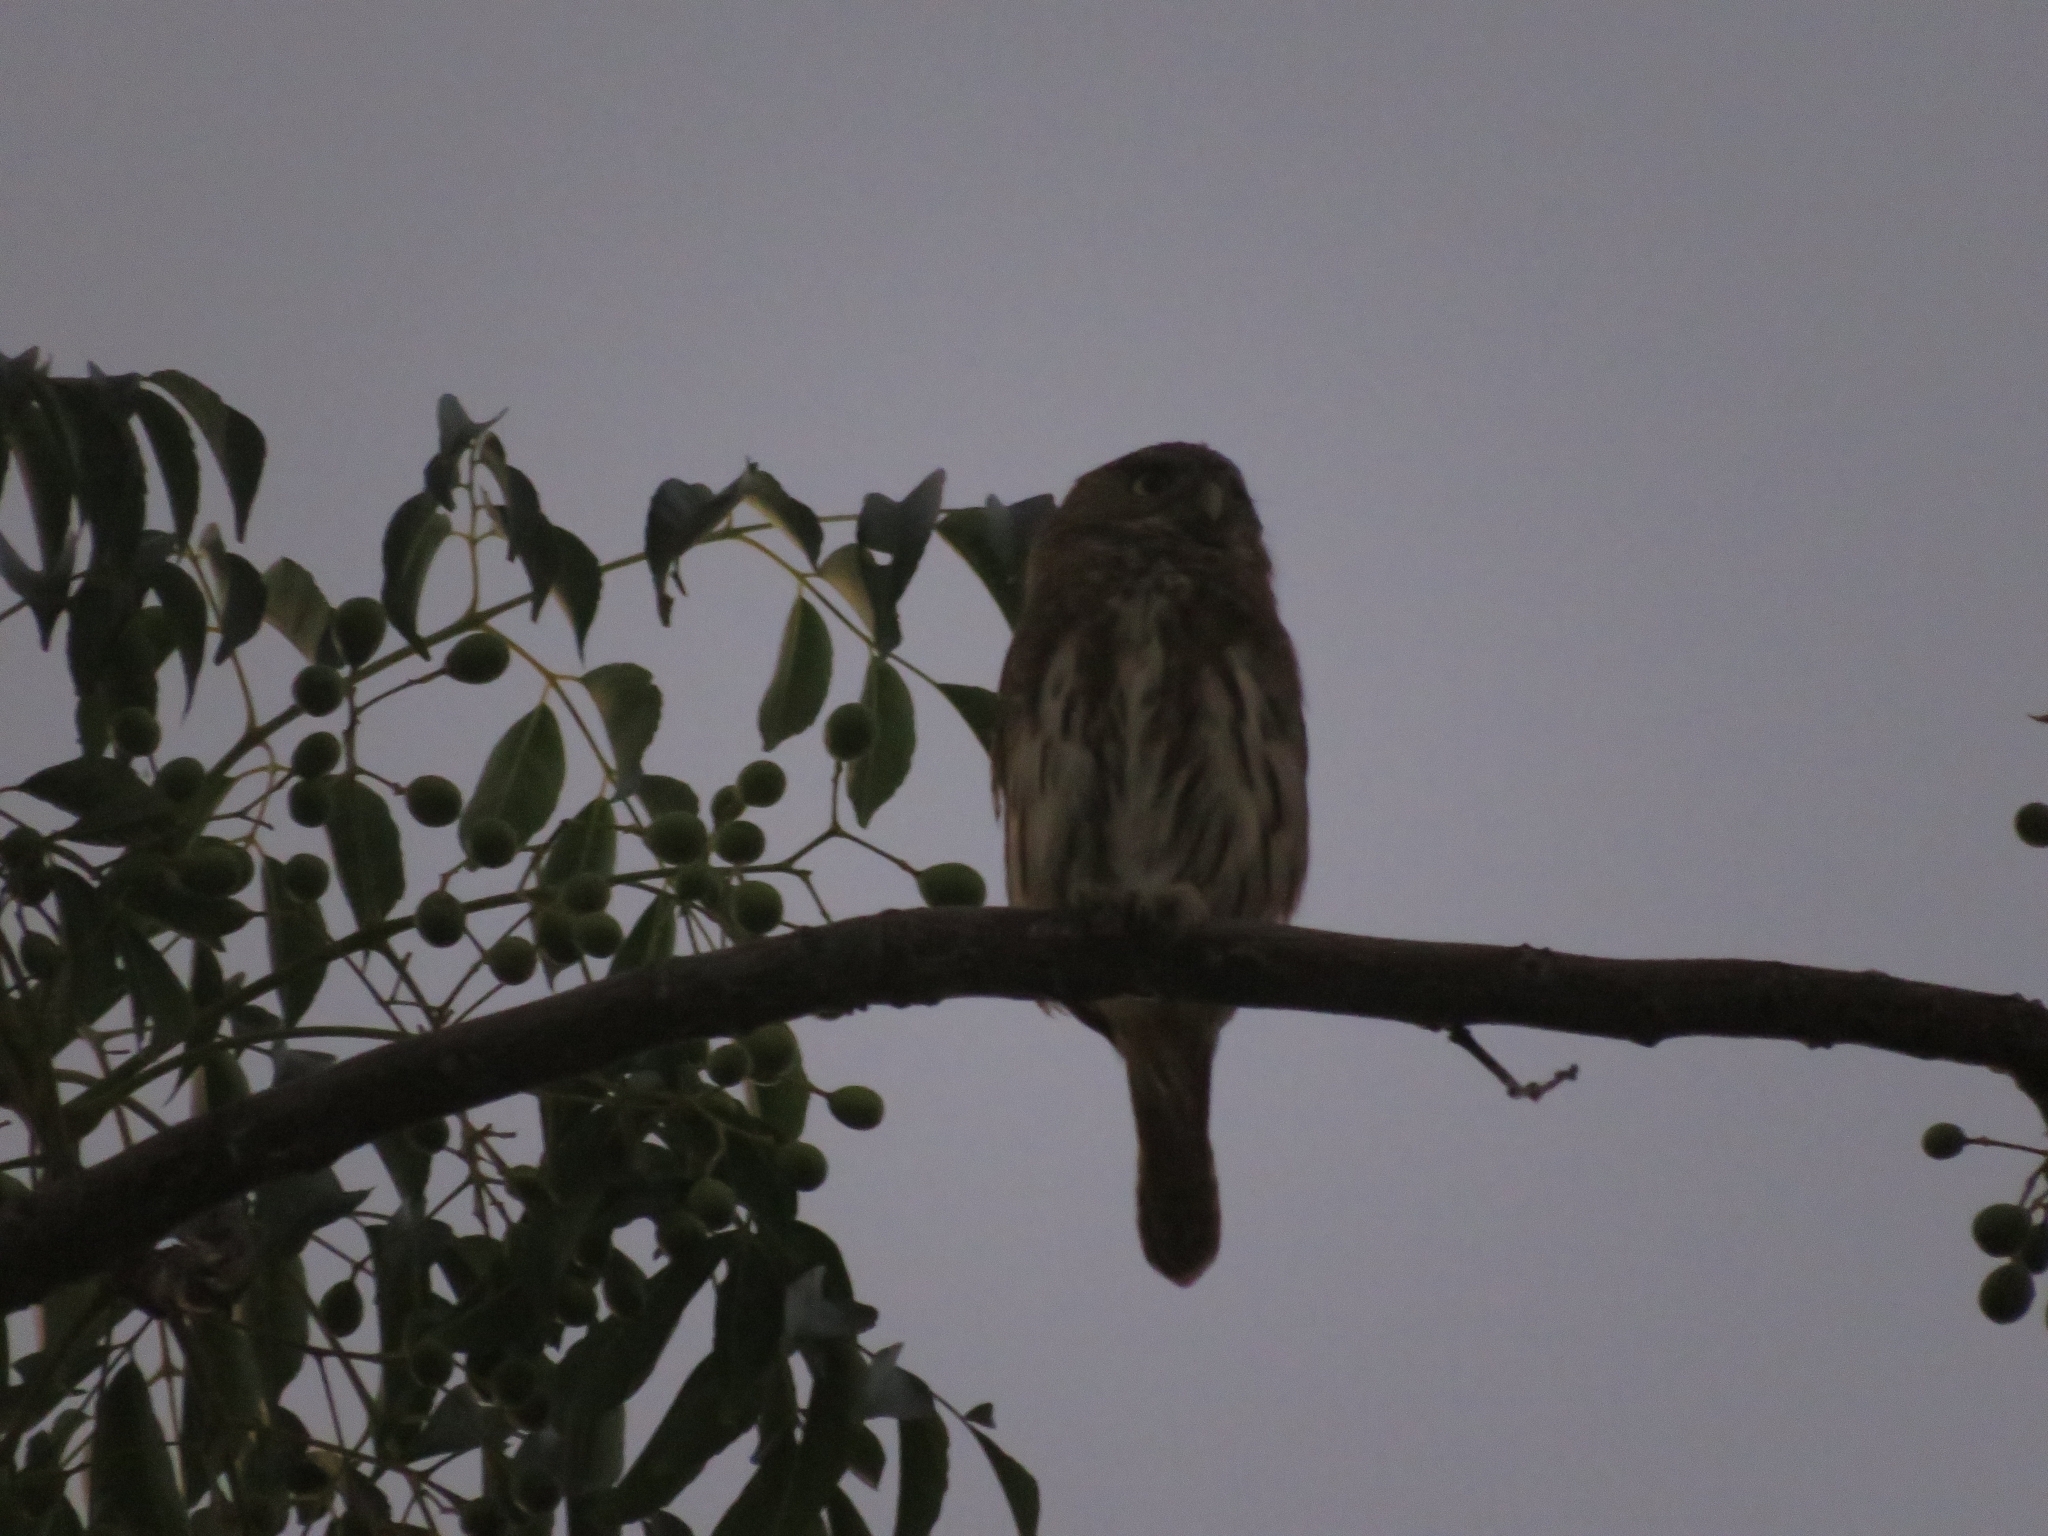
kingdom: Animalia
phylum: Chordata
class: Aves
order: Strigiformes
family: Strigidae
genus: Glaucidium
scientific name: Glaucidium brasilianum
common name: Ferruginous pygmy-owl
